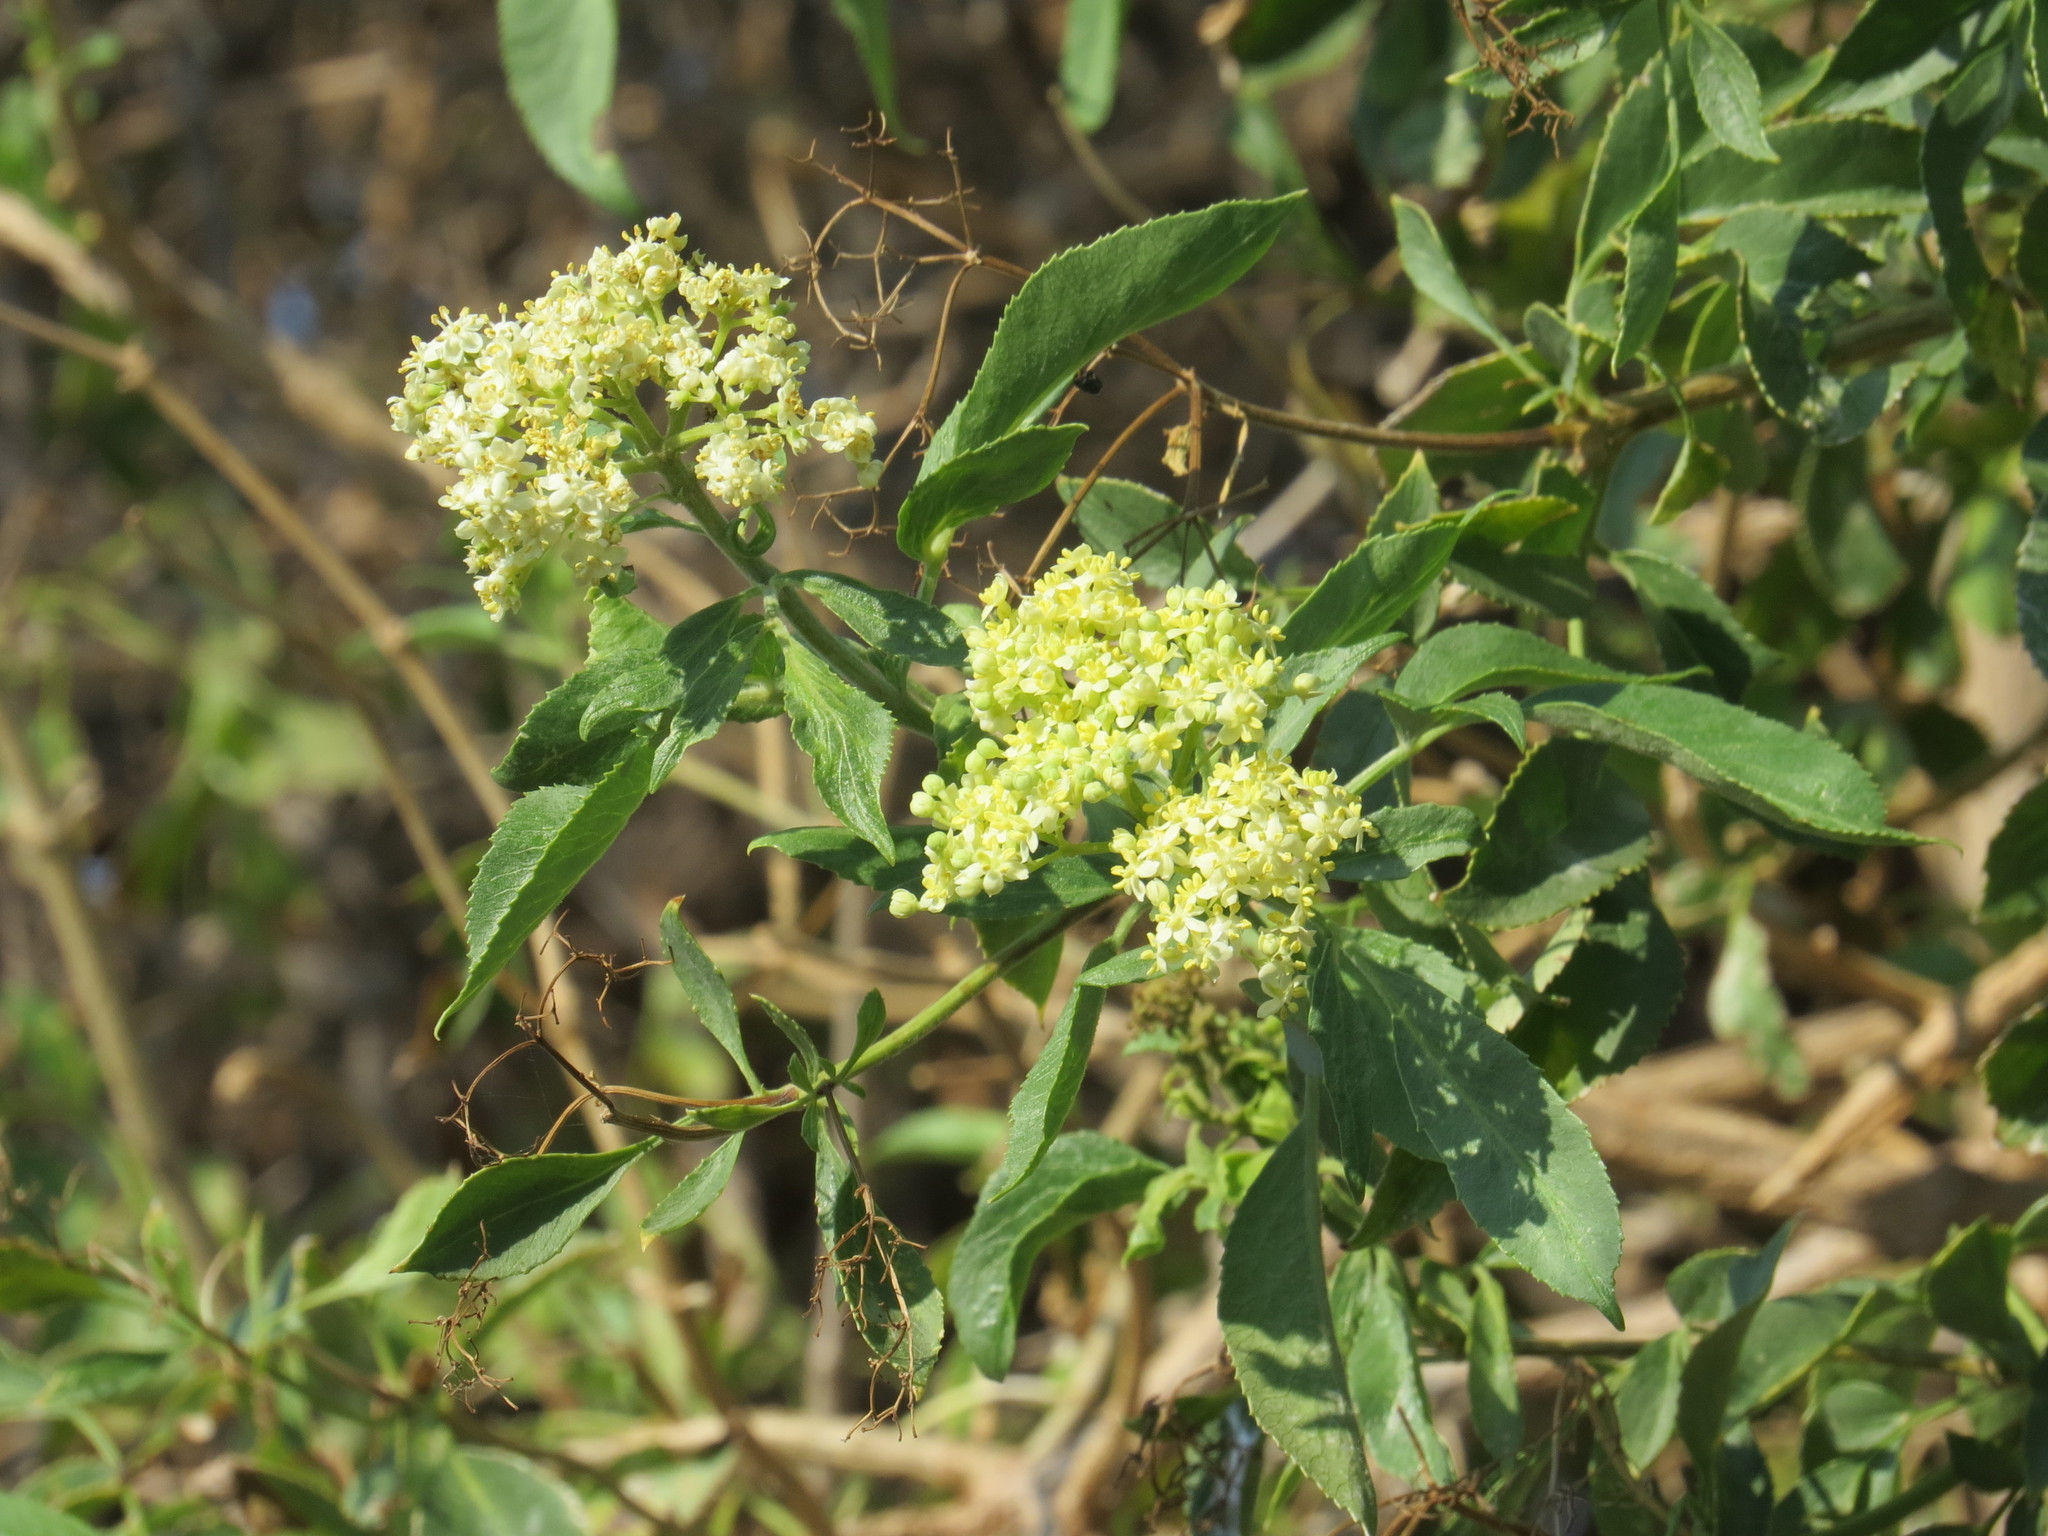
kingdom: Plantae
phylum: Tracheophyta
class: Magnoliopsida
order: Dipsacales
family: Viburnaceae
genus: Sambucus
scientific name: Sambucus cerulea
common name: Blue elder
